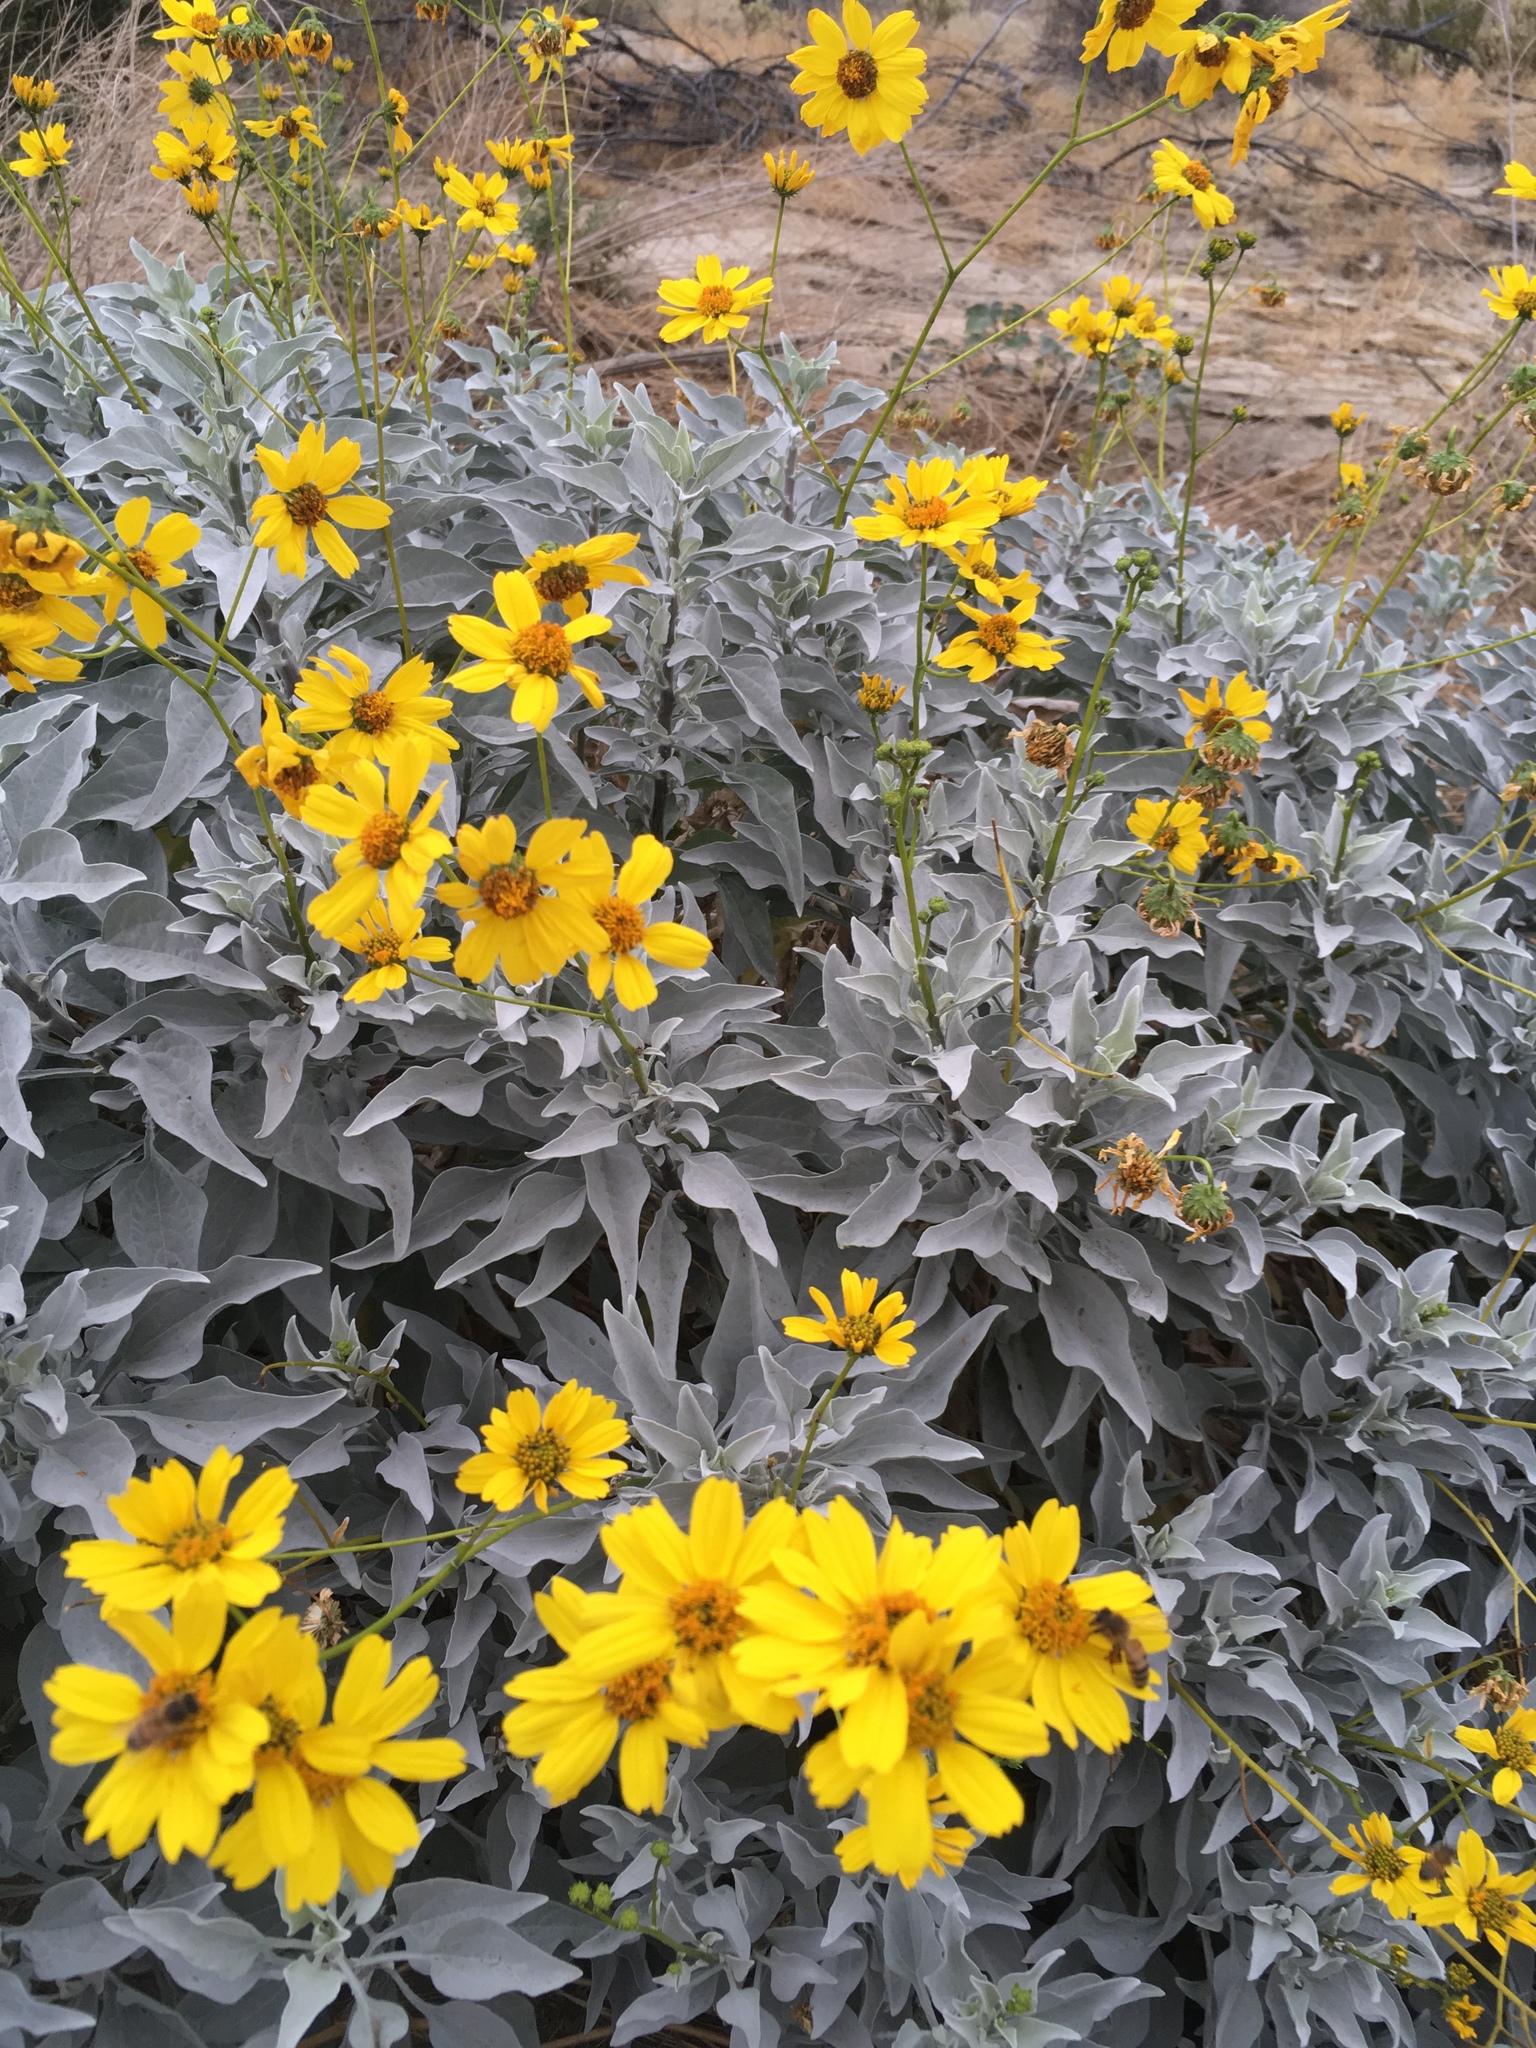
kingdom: Animalia
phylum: Arthropoda
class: Insecta
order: Hymenoptera
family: Apidae
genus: Apis
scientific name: Apis mellifera
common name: Honey bee
